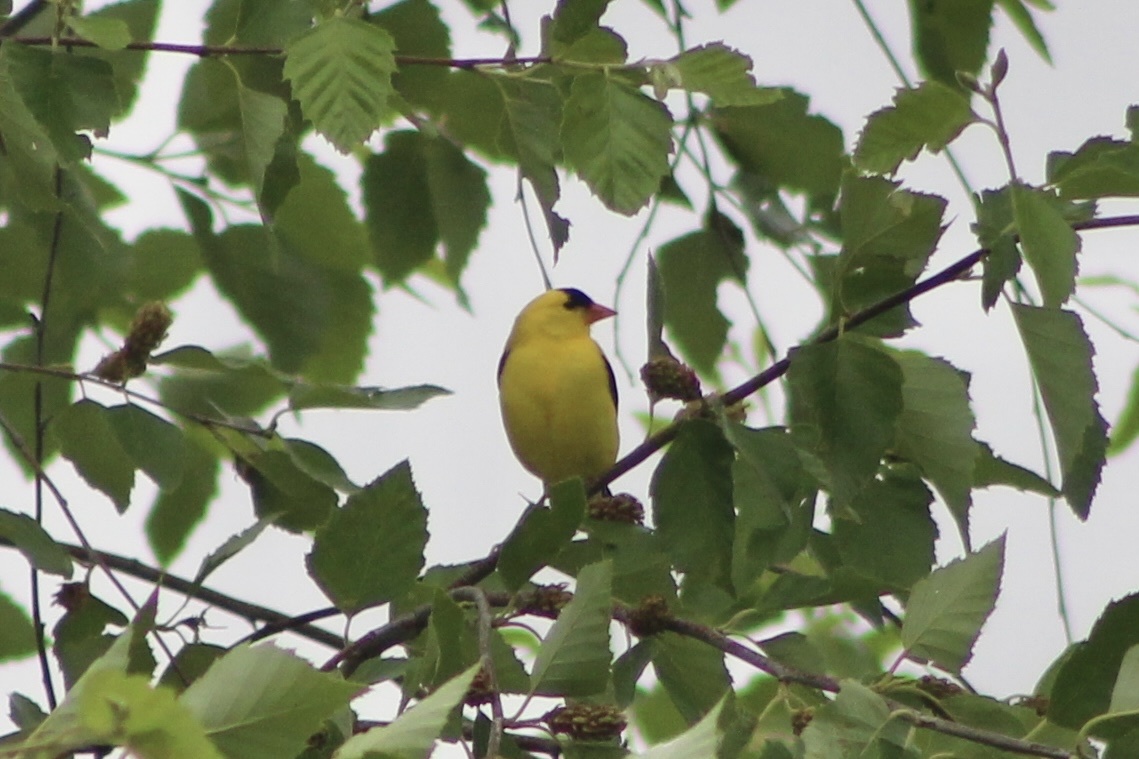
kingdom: Animalia
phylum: Chordata
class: Aves
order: Passeriformes
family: Fringillidae
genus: Spinus
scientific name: Spinus tristis
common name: American goldfinch
